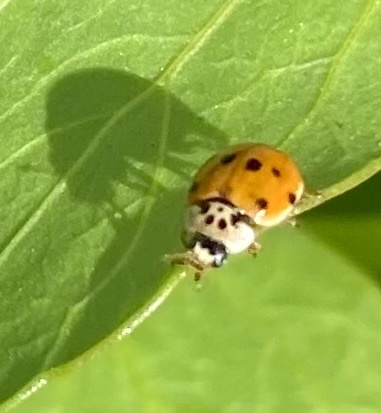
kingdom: Animalia
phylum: Arthropoda
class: Insecta
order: Coleoptera
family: Coccinellidae
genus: Adalia
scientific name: Adalia decempunctata
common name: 10-spot ladybird
